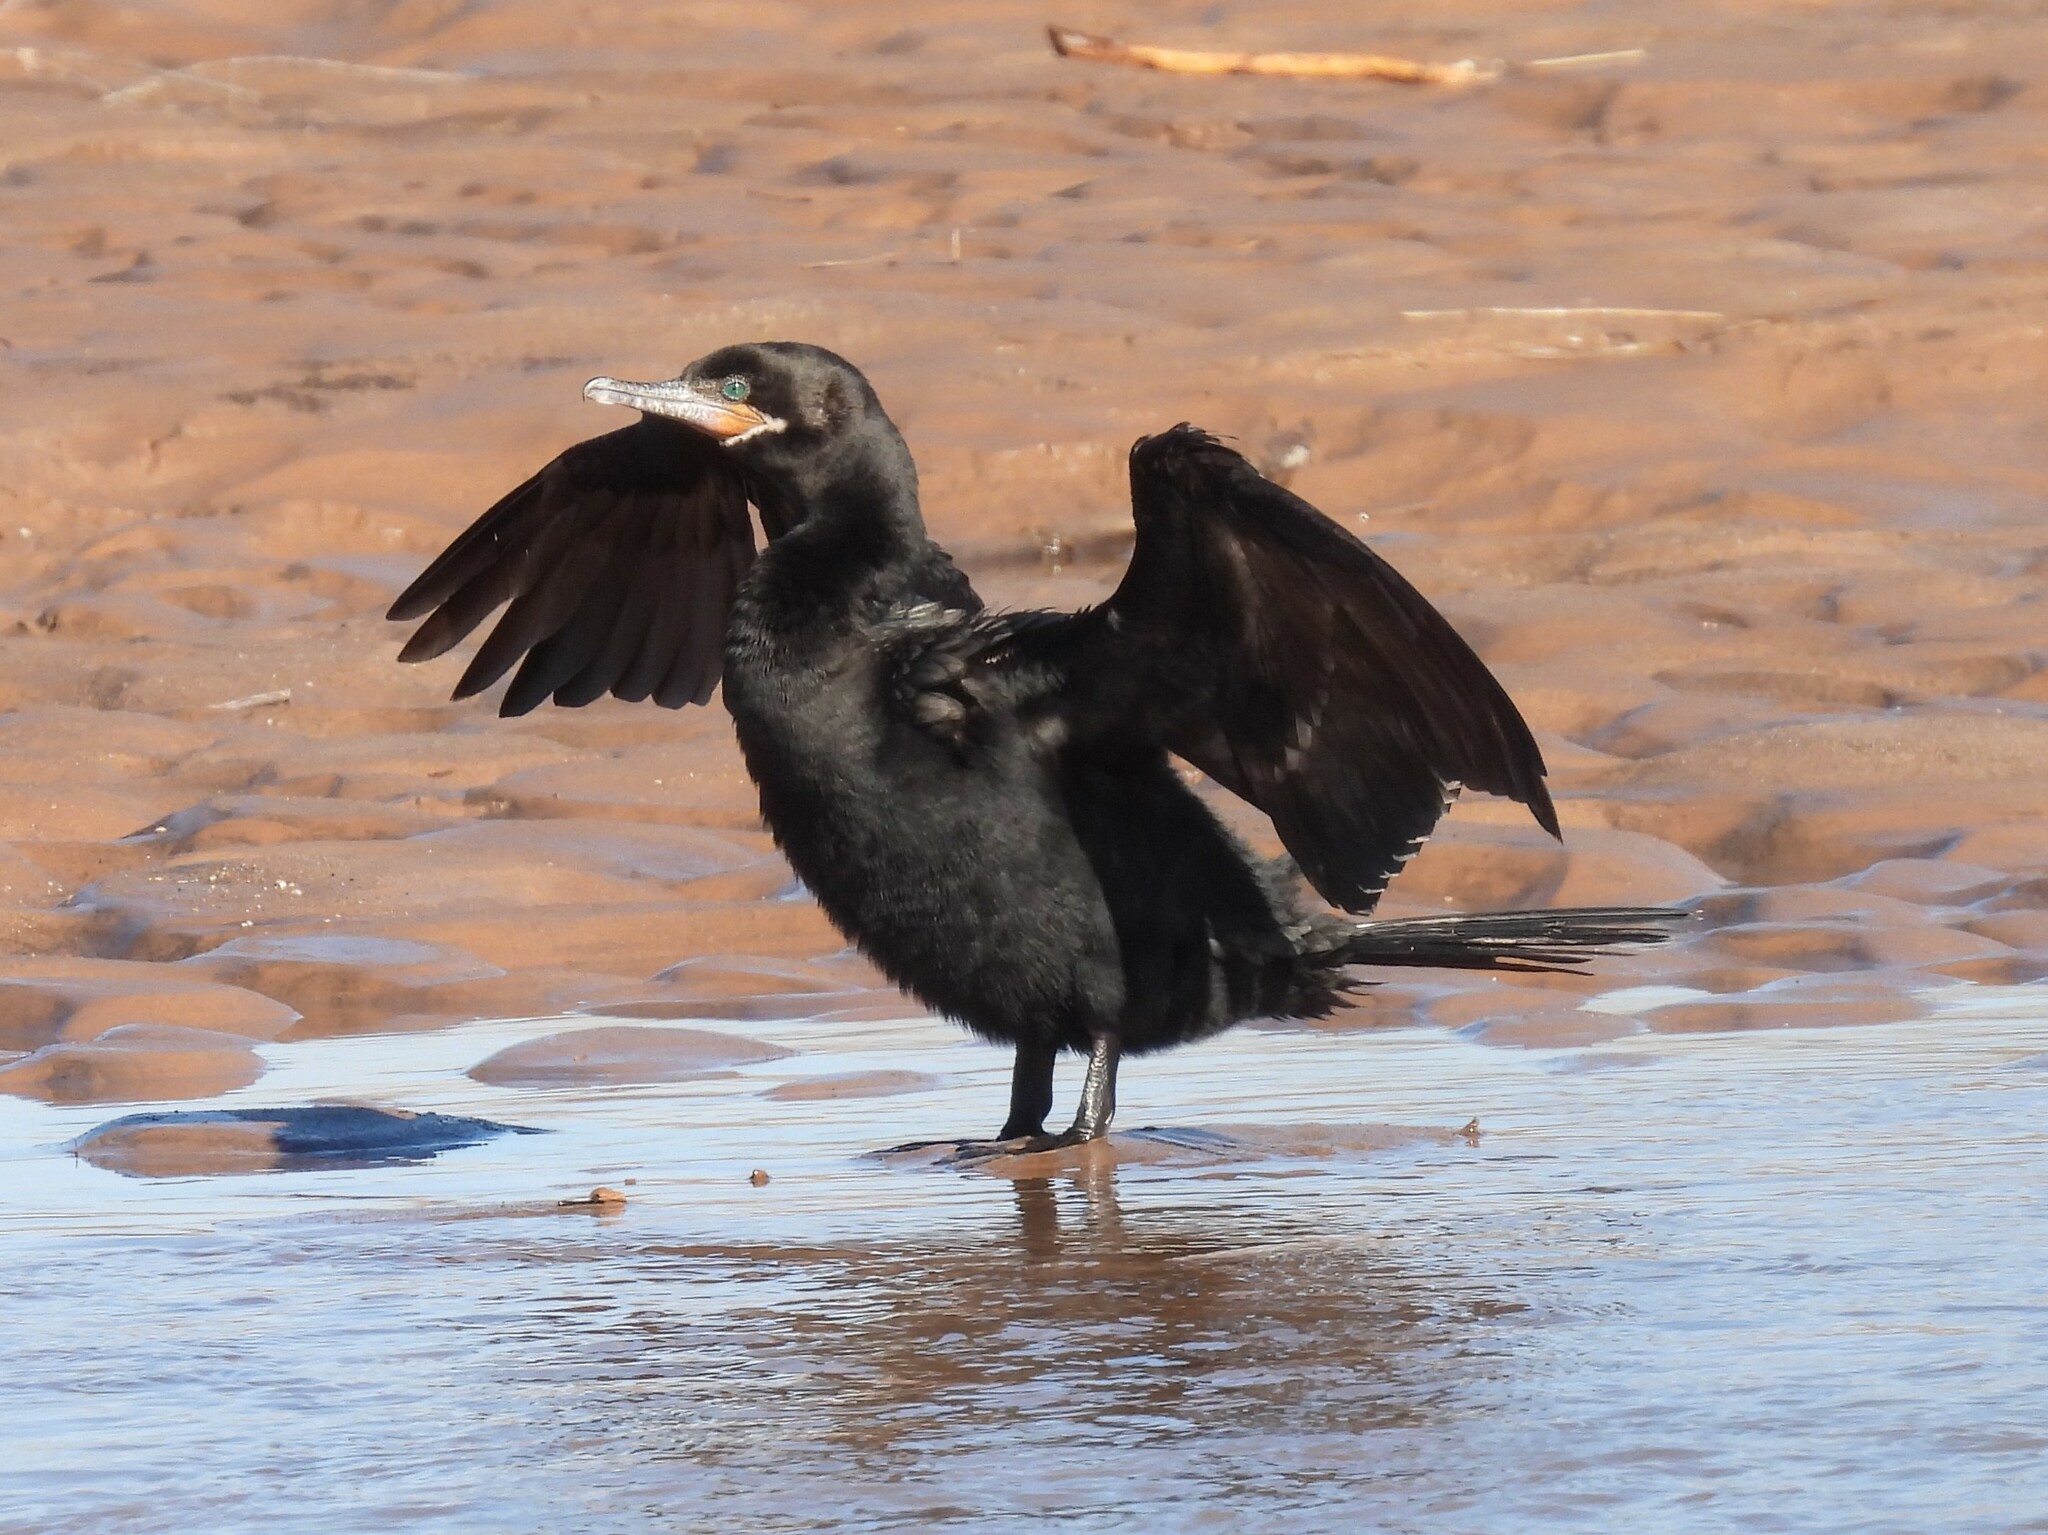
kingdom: Animalia
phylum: Chordata
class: Aves
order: Suliformes
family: Phalacrocoracidae
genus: Phalacrocorax
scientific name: Phalacrocorax brasilianus
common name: Neotropic cormorant
